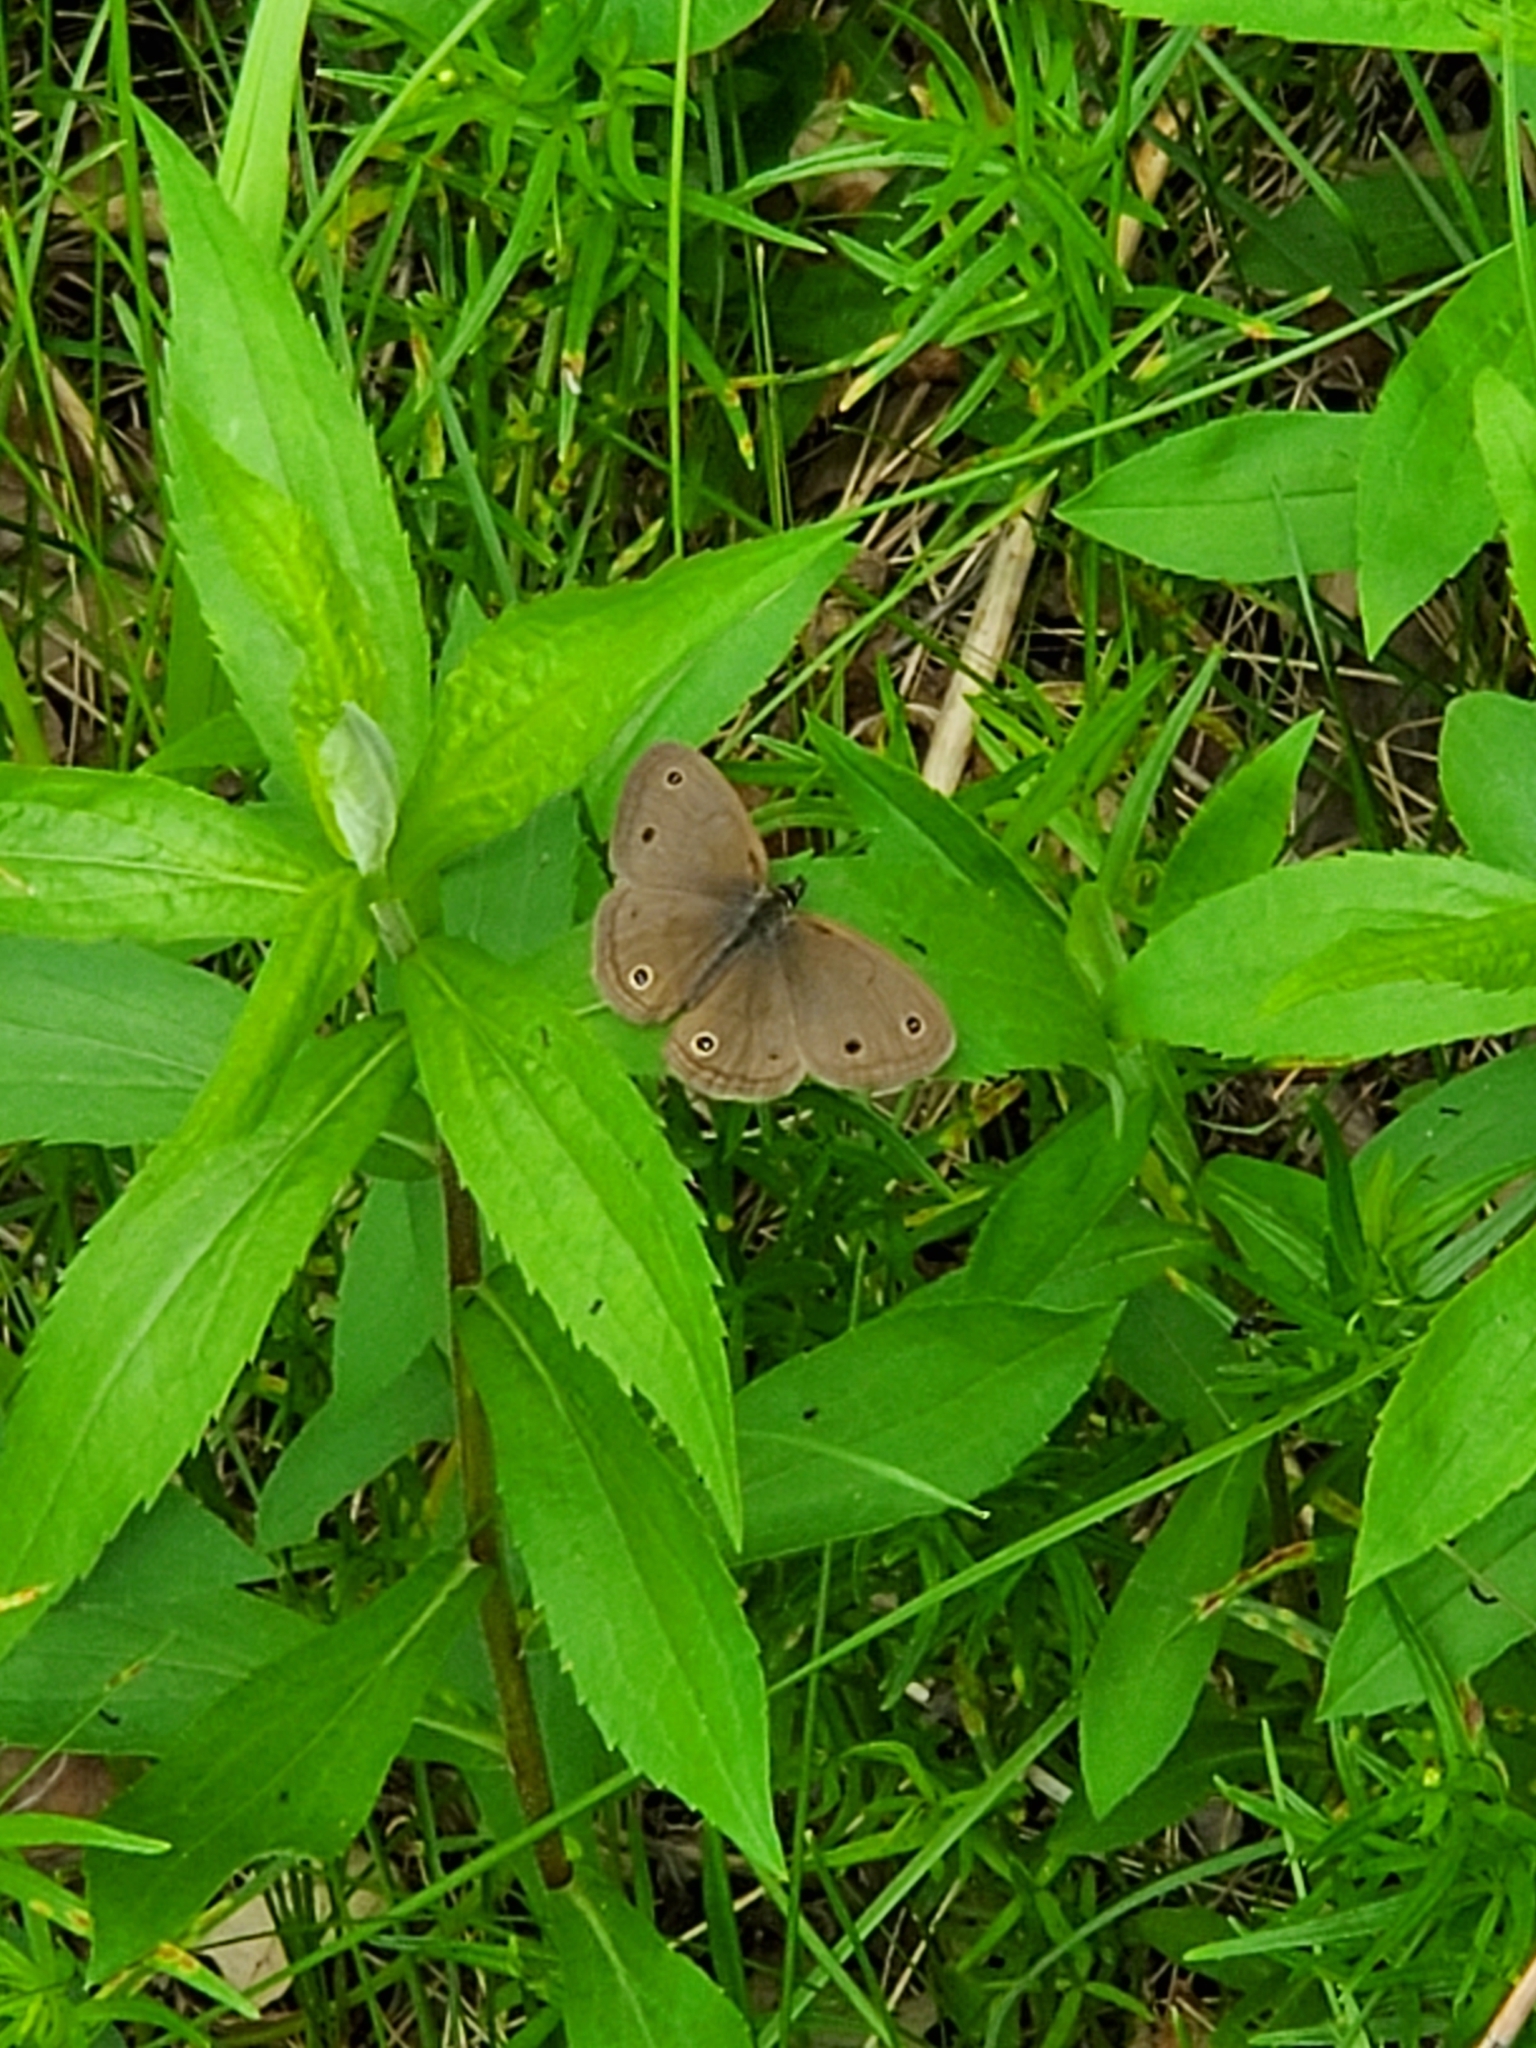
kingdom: Animalia
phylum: Arthropoda
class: Insecta
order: Lepidoptera
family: Nymphalidae
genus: Euptychia
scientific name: Euptychia cymela
